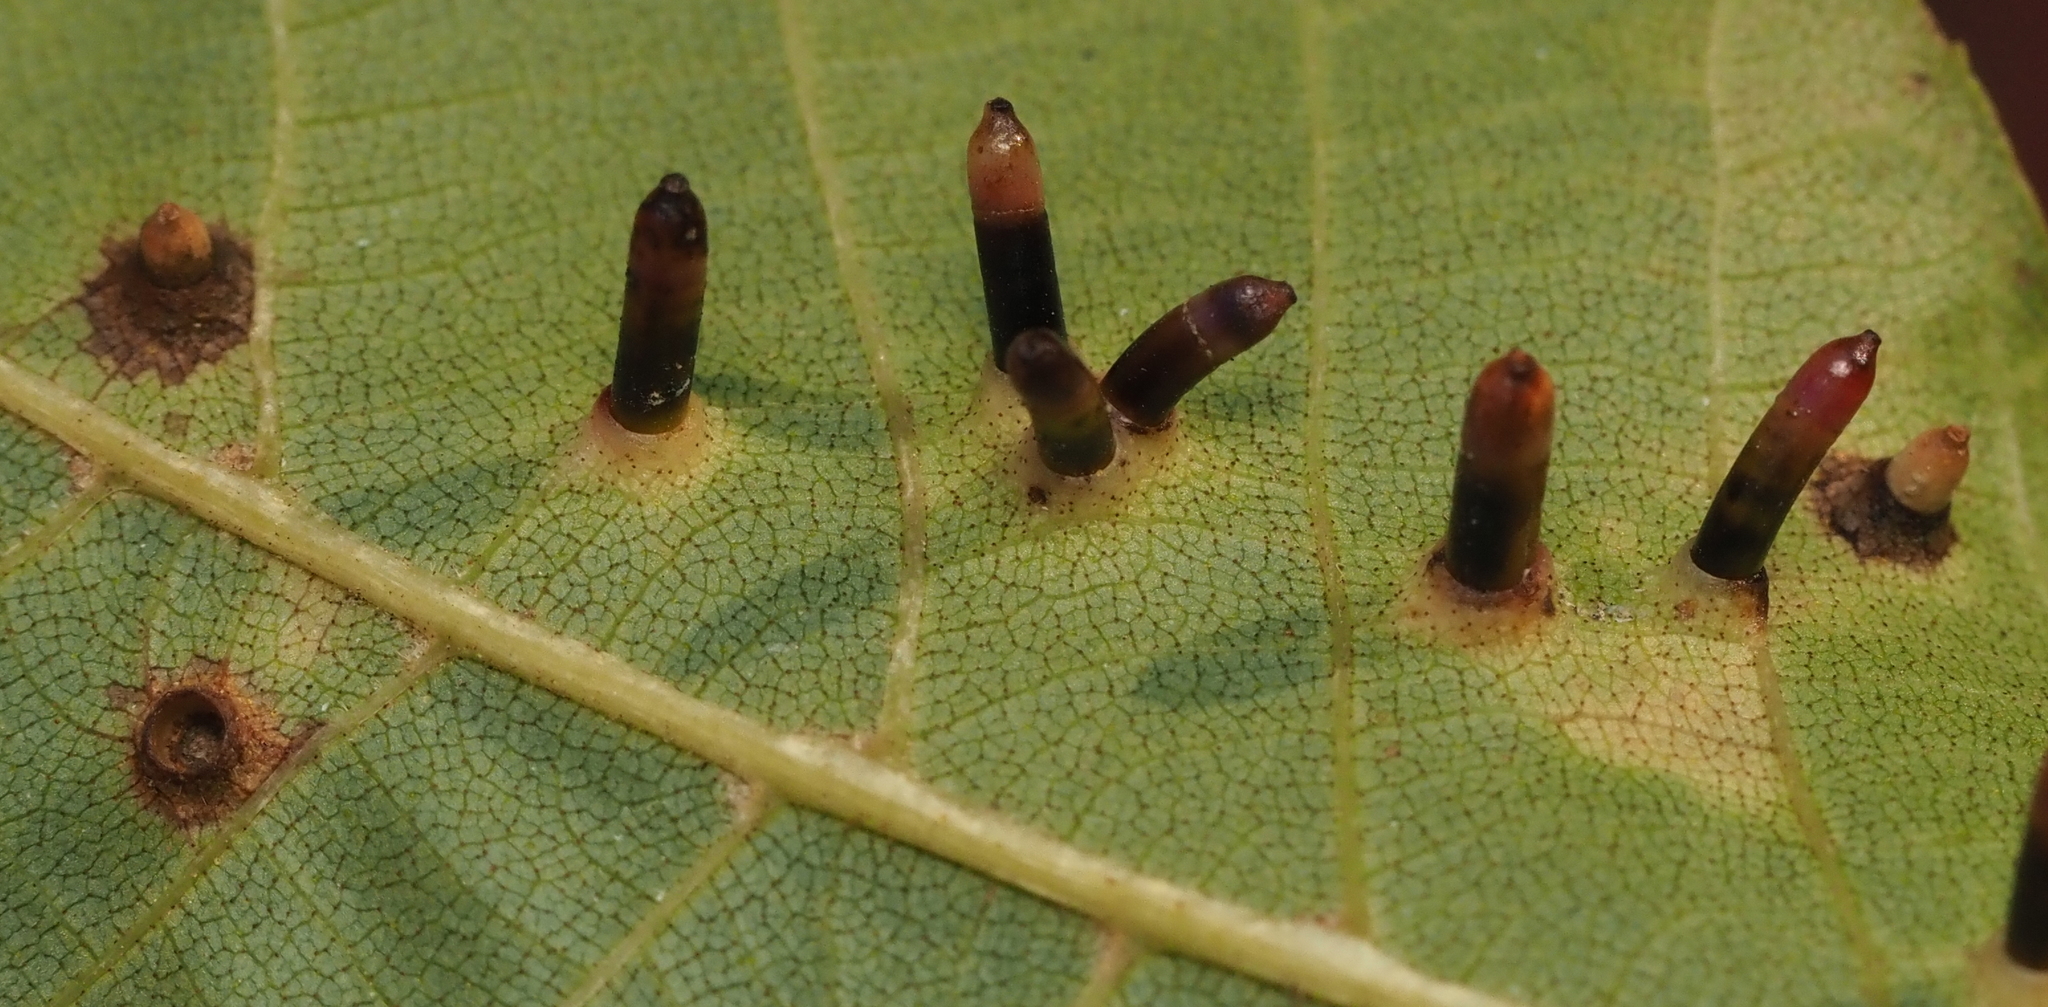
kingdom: Animalia
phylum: Arthropoda
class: Insecta
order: Diptera
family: Cecidomyiidae
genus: Caryomyia
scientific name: Caryomyia tubicola
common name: Hickory bullet gall midge
